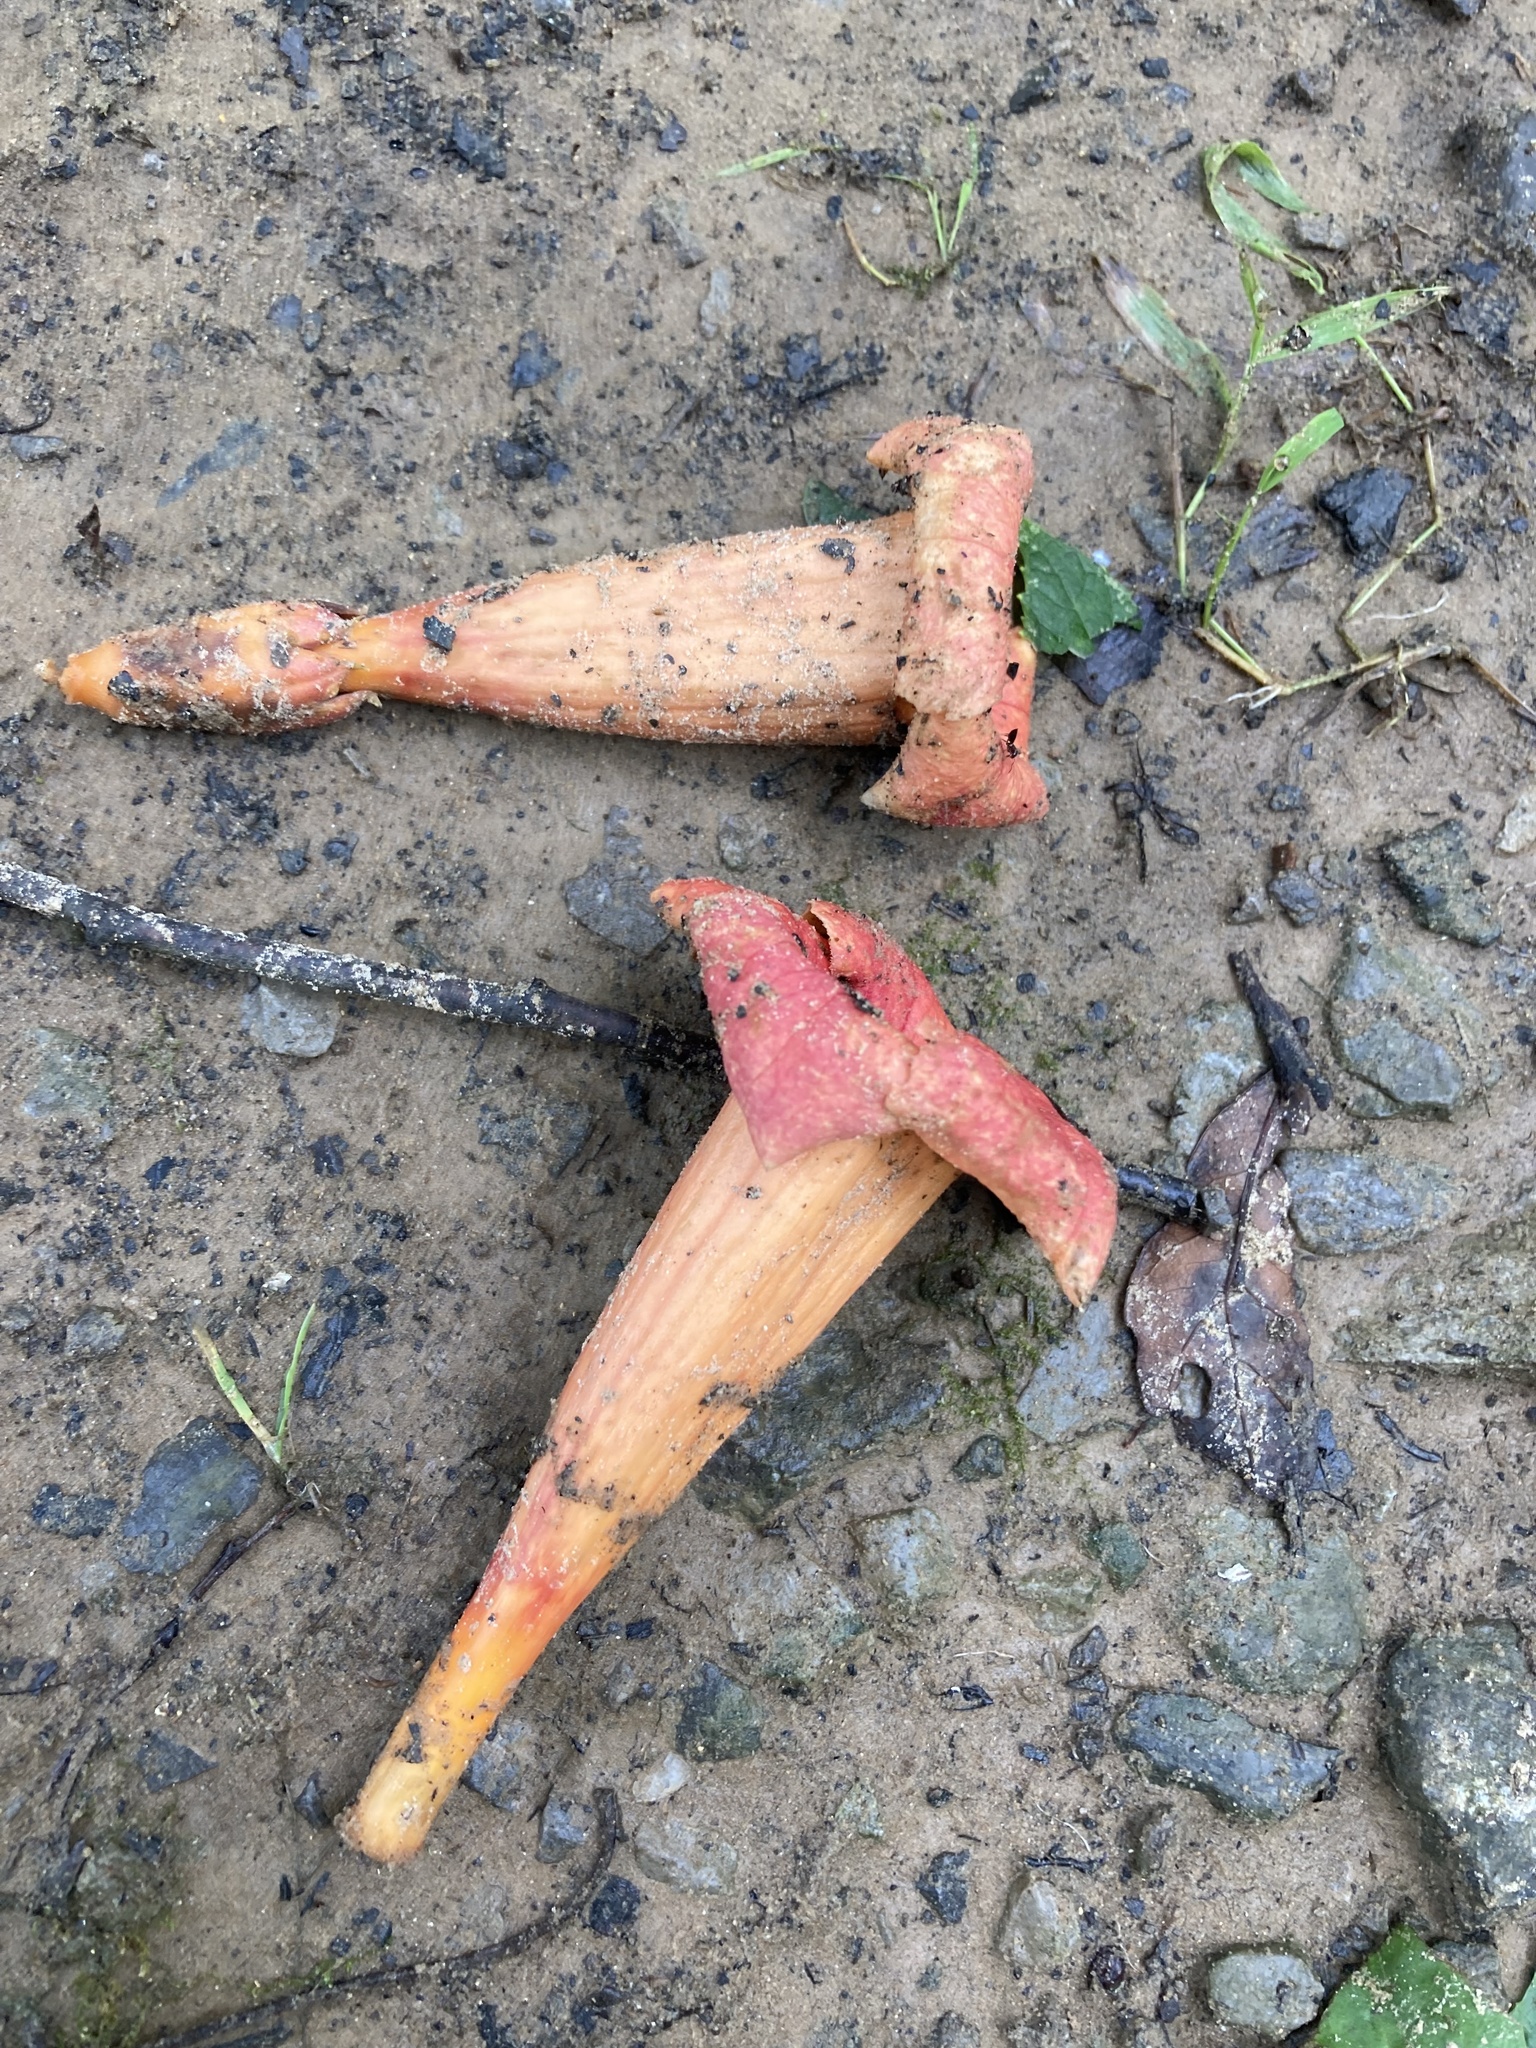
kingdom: Plantae
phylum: Tracheophyta
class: Magnoliopsida
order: Lamiales
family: Bignoniaceae
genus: Campsis
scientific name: Campsis radicans
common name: Trumpet-creeper
